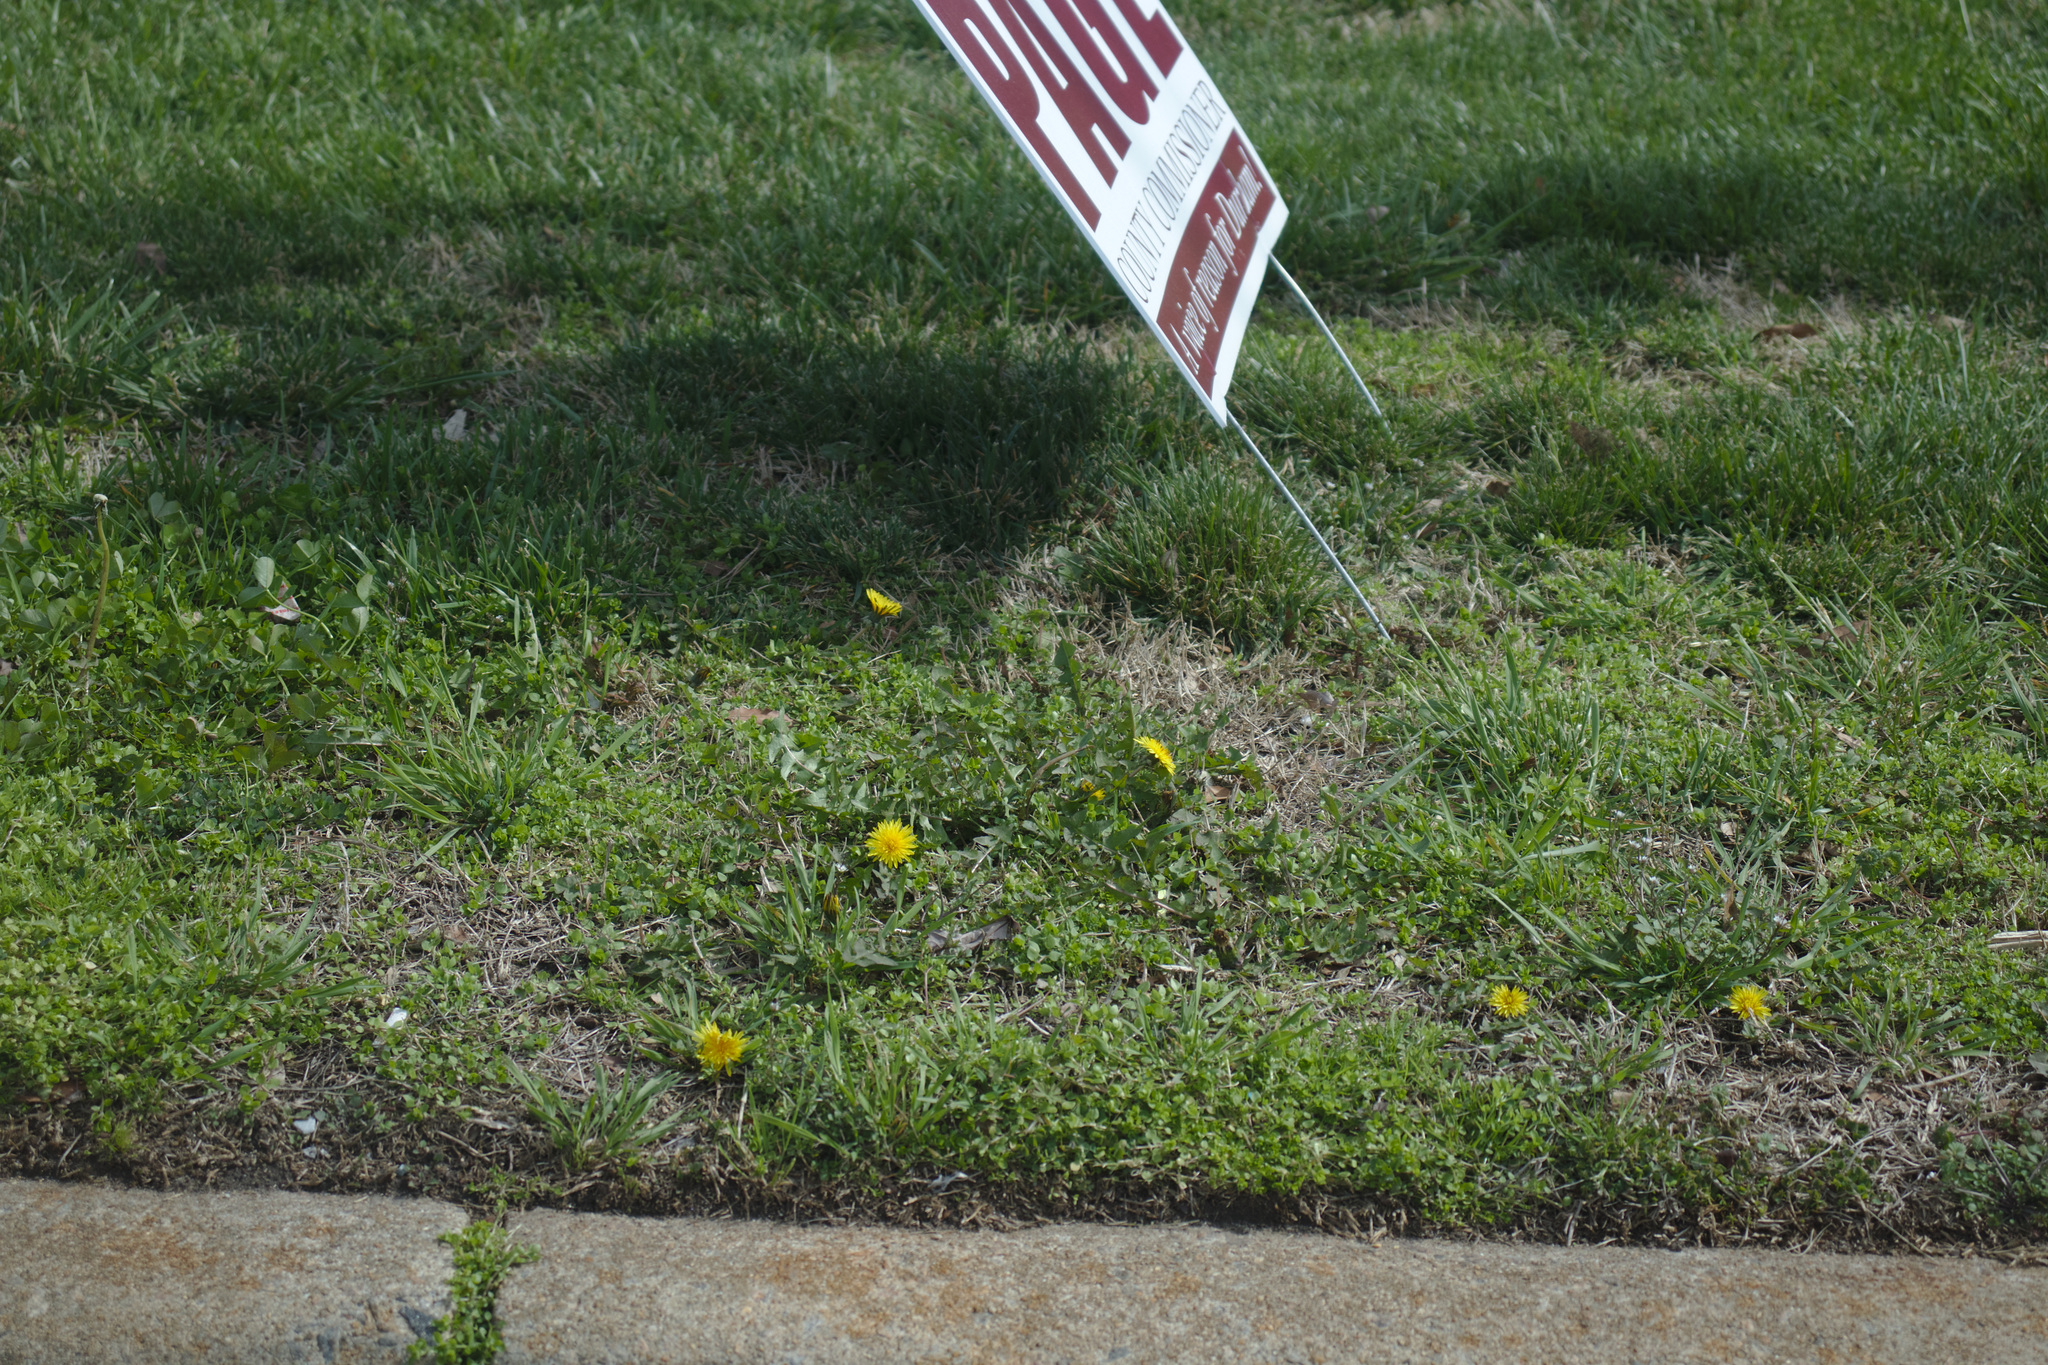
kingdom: Plantae
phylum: Tracheophyta
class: Magnoliopsida
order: Asterales
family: Asteraceae
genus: Taraxacum
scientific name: Taraxacum officinale
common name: Common dandelion
